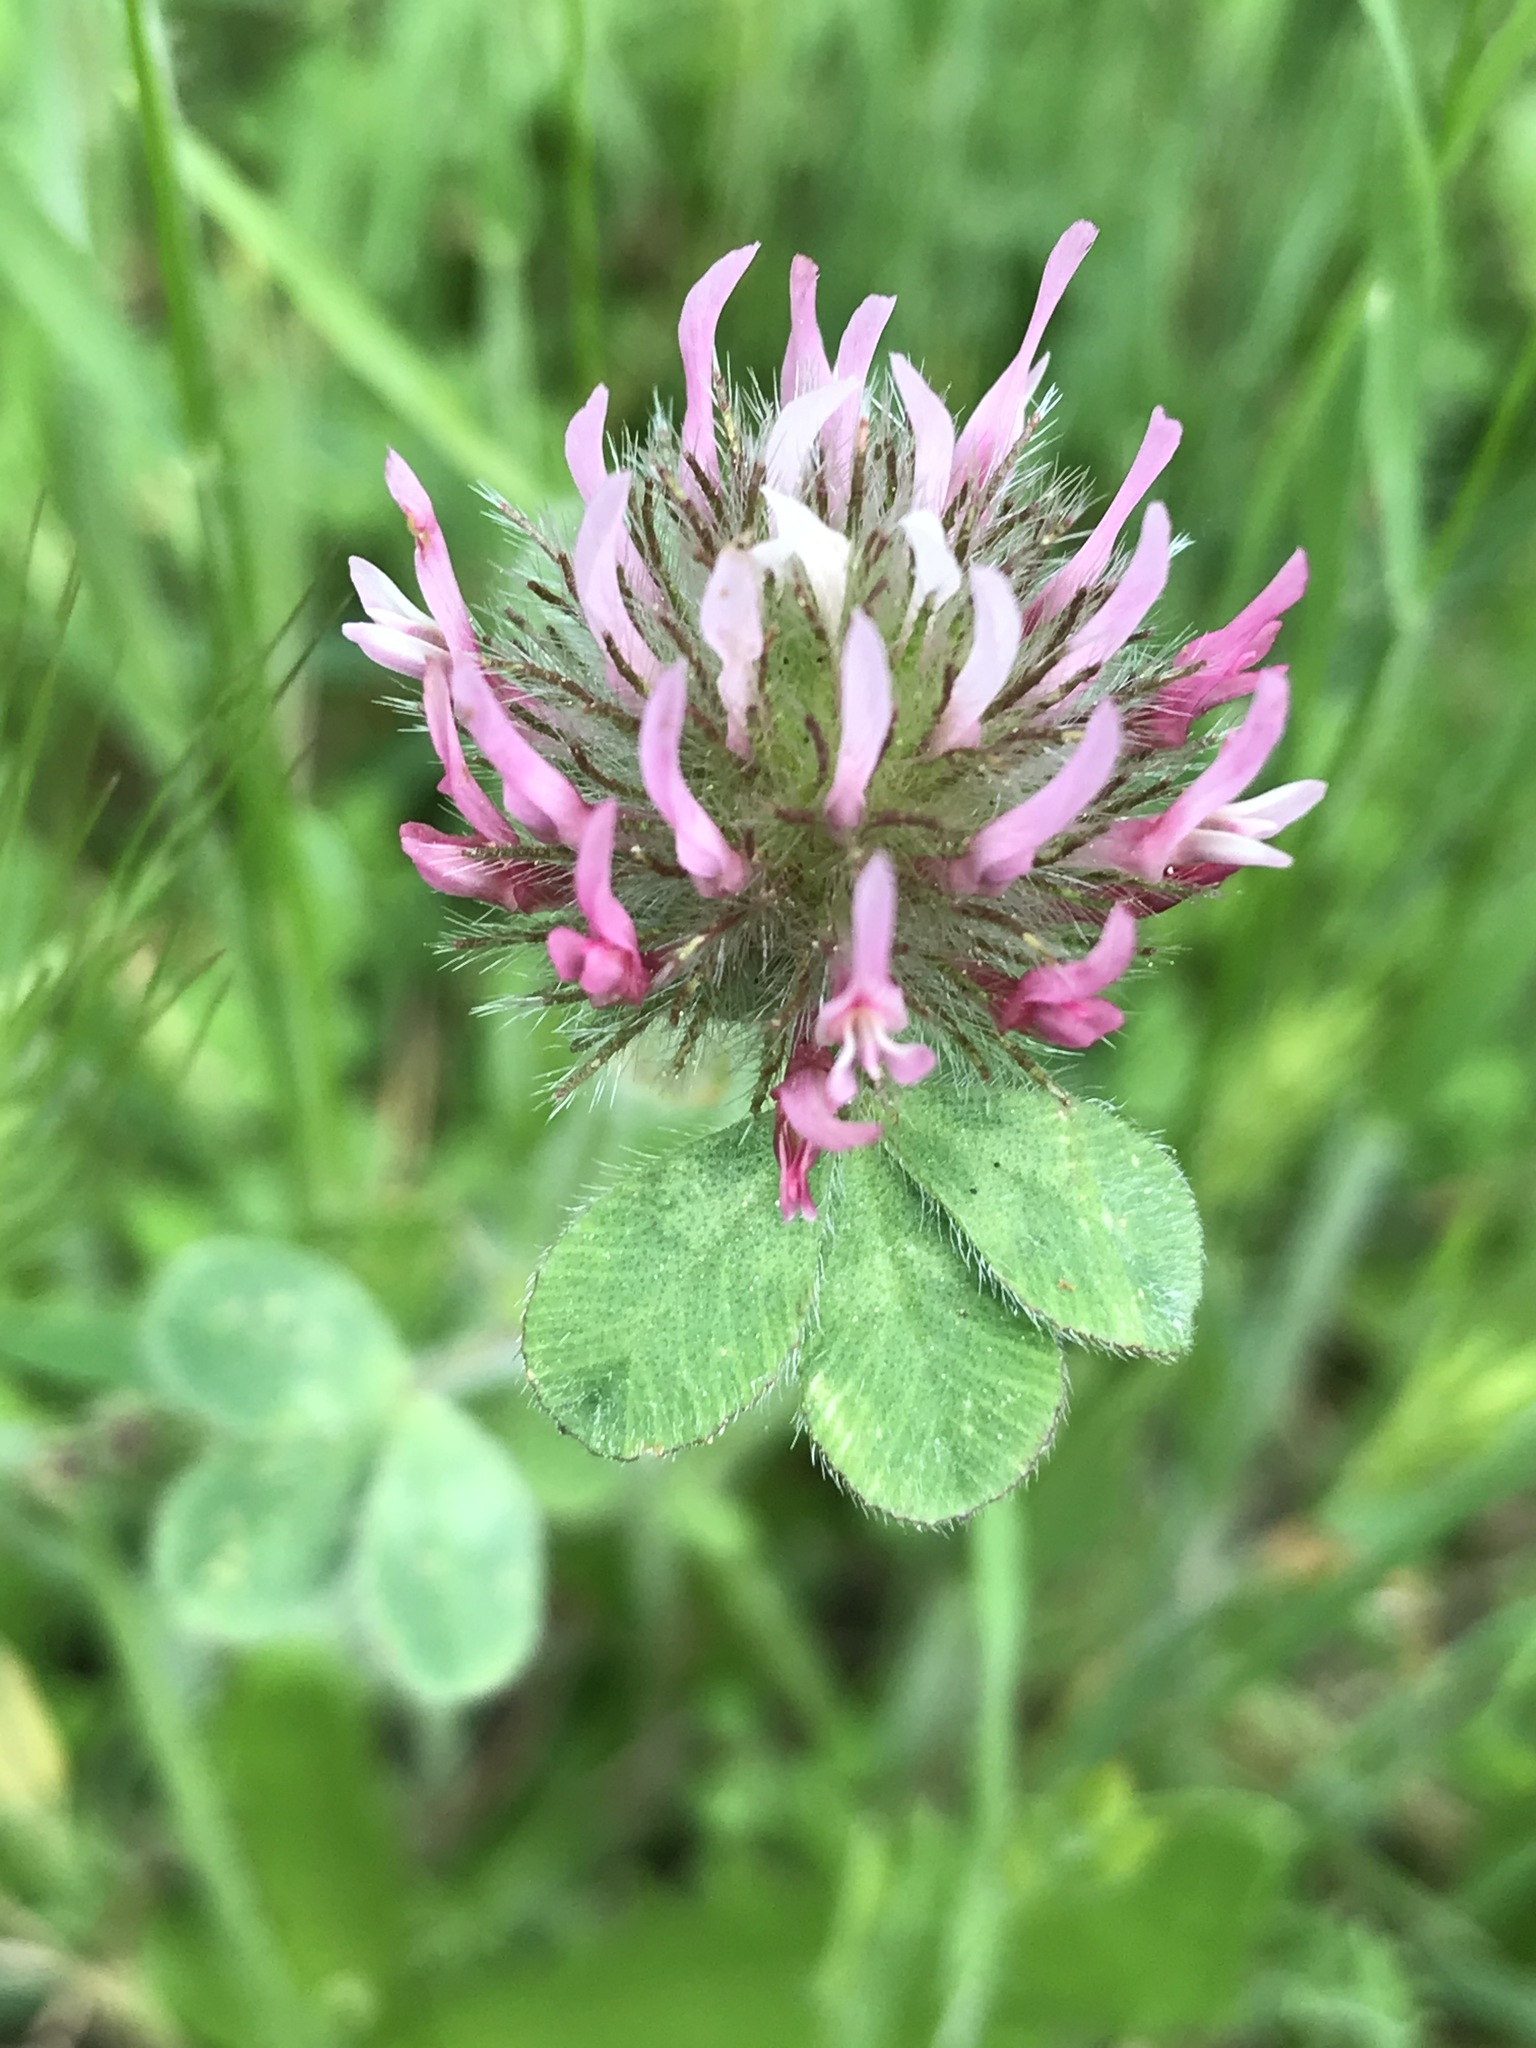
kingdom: Plantae
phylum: Tracheophyta
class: Magnoliopsida
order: Fabales
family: Fabaceae
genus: Trifolium
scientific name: Trifolium hirtum
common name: Rose clover
